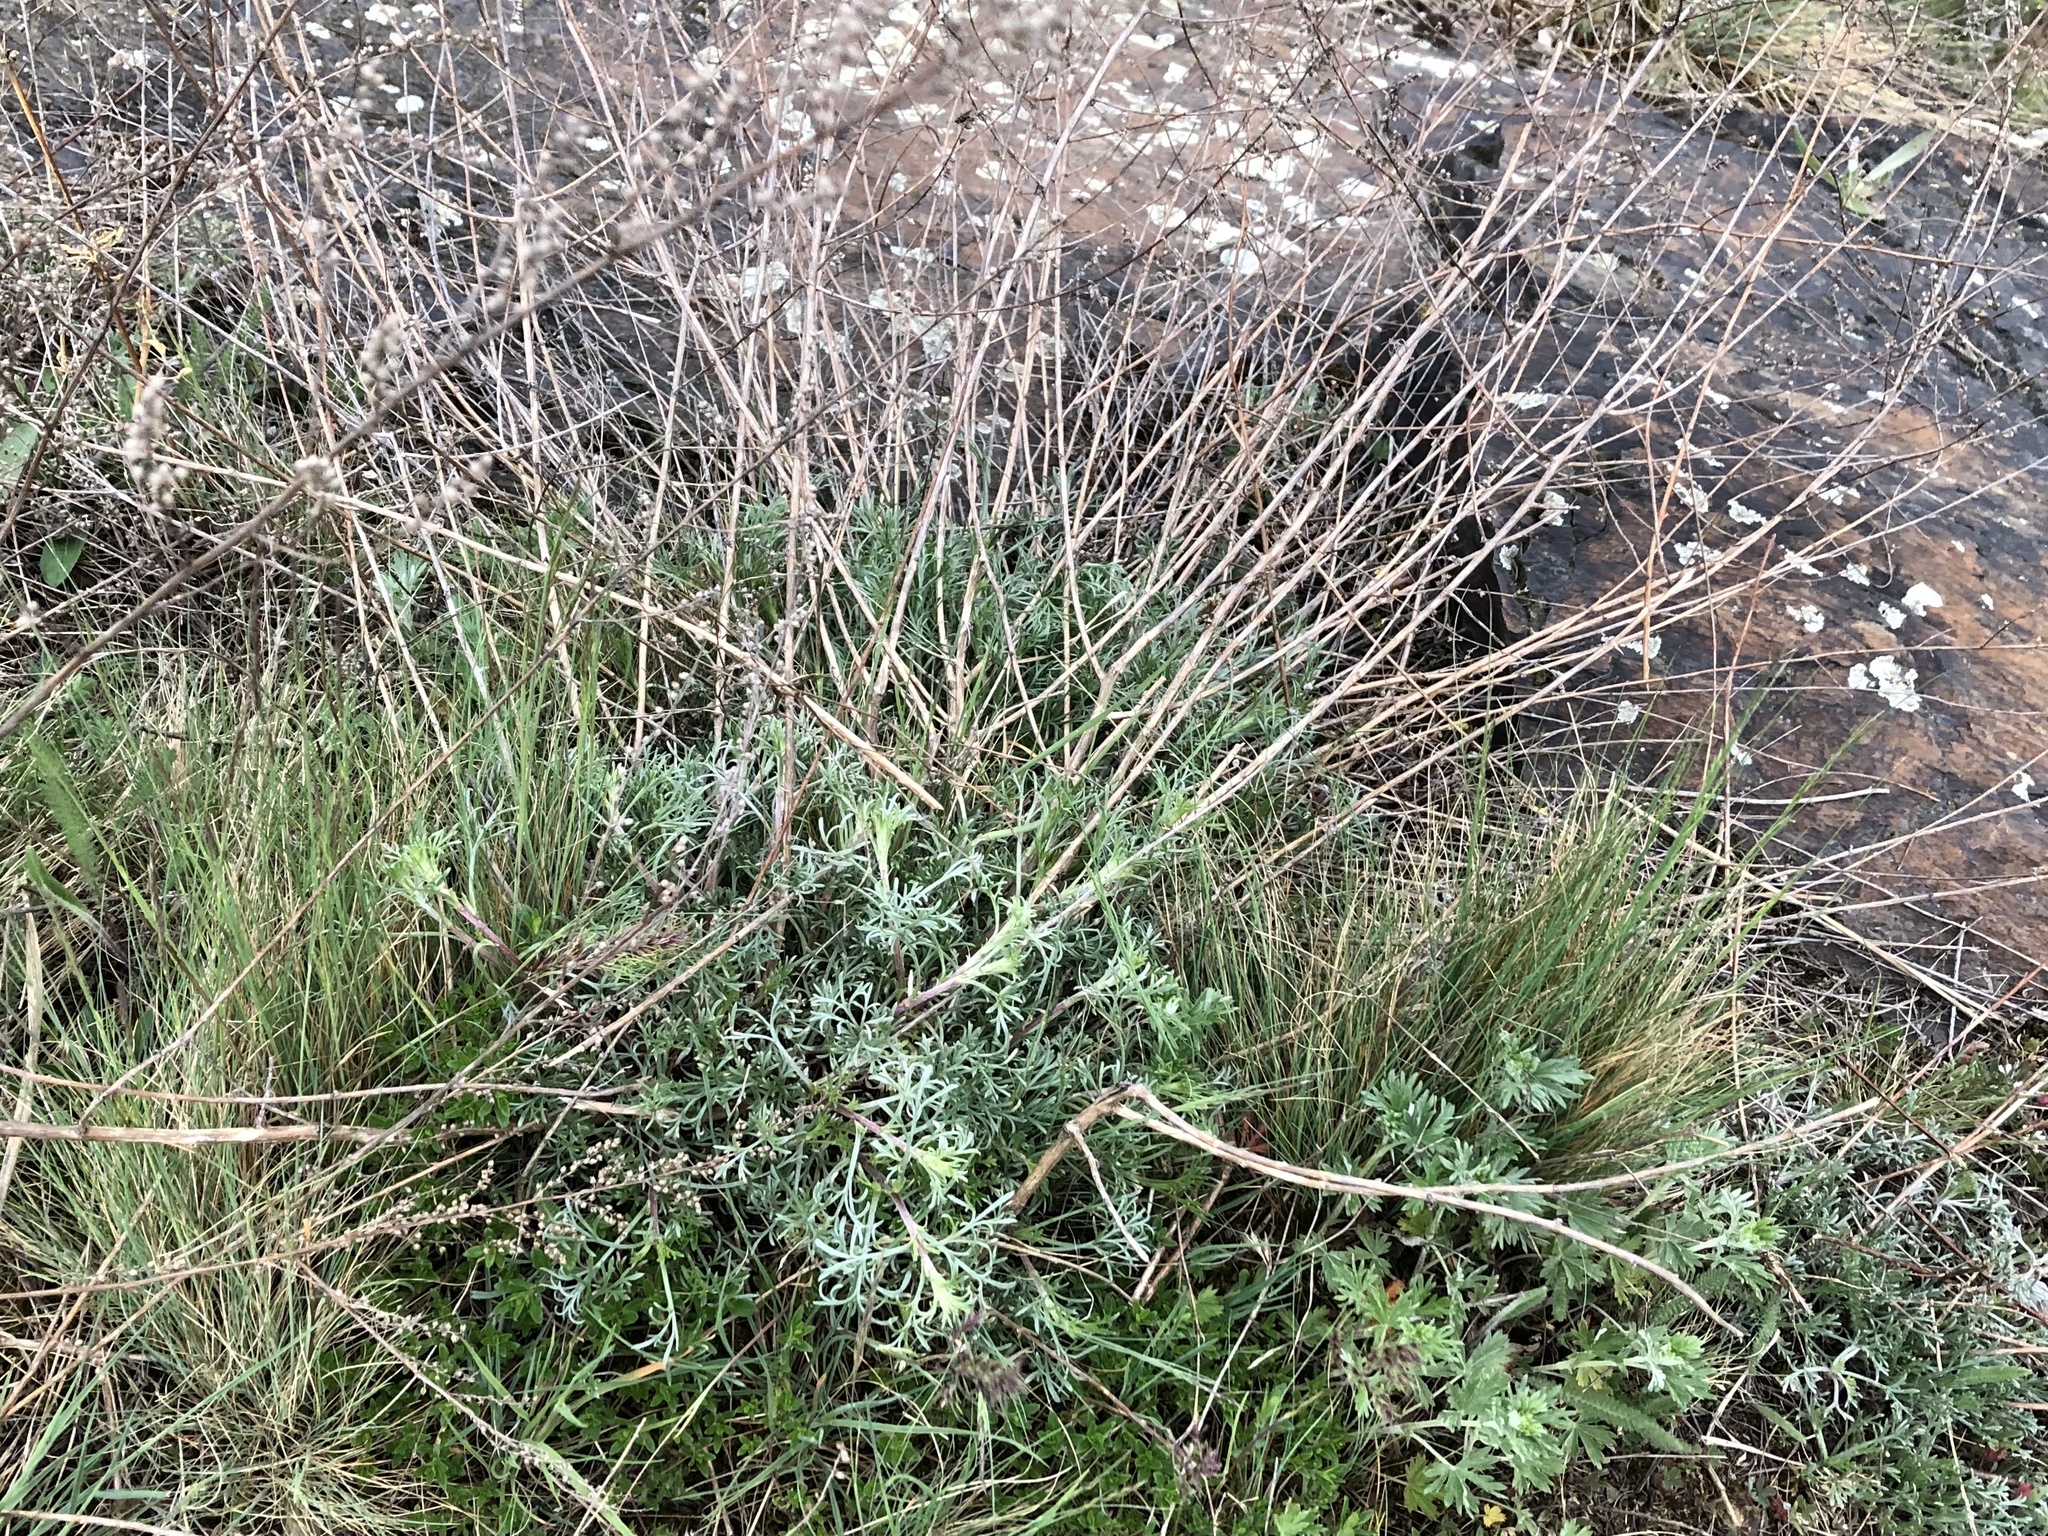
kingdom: Plantae
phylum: Tracheophyta
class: Magnoliopsida
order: Asterales
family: Asteraceae
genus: Artemisia
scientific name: Artemisia campestris
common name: Field wormwood
